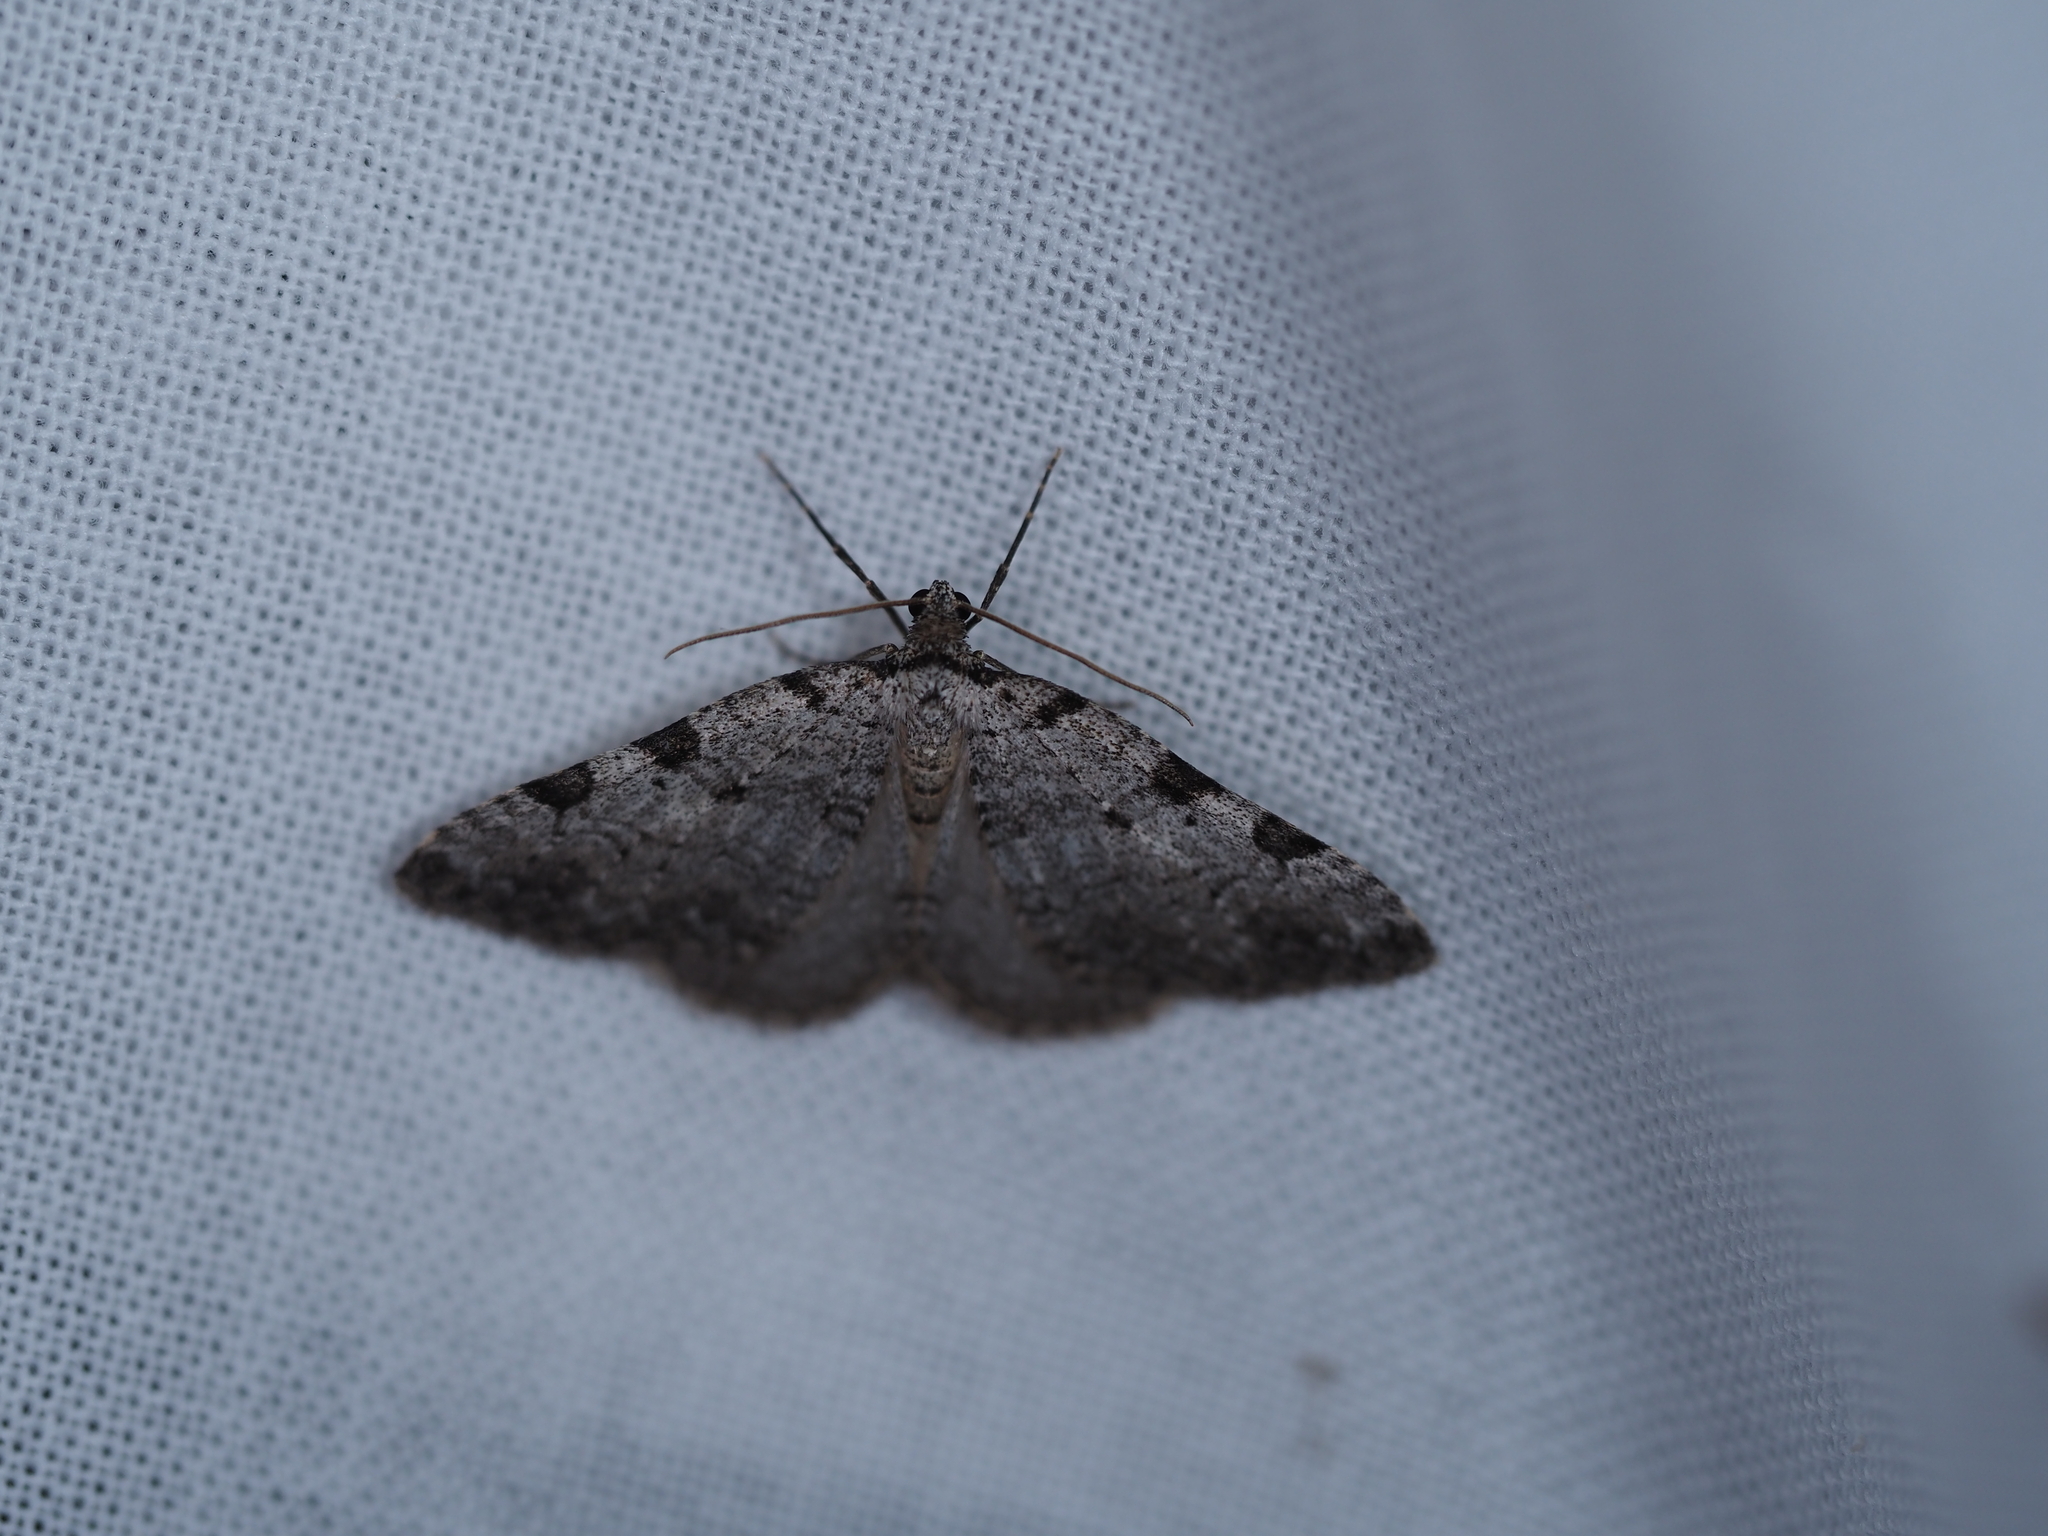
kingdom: Animalia
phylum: Arthropoda
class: Insecta
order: Lepidoptera
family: Geometridae
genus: Perizoma
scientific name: Perizoma costiguttata
